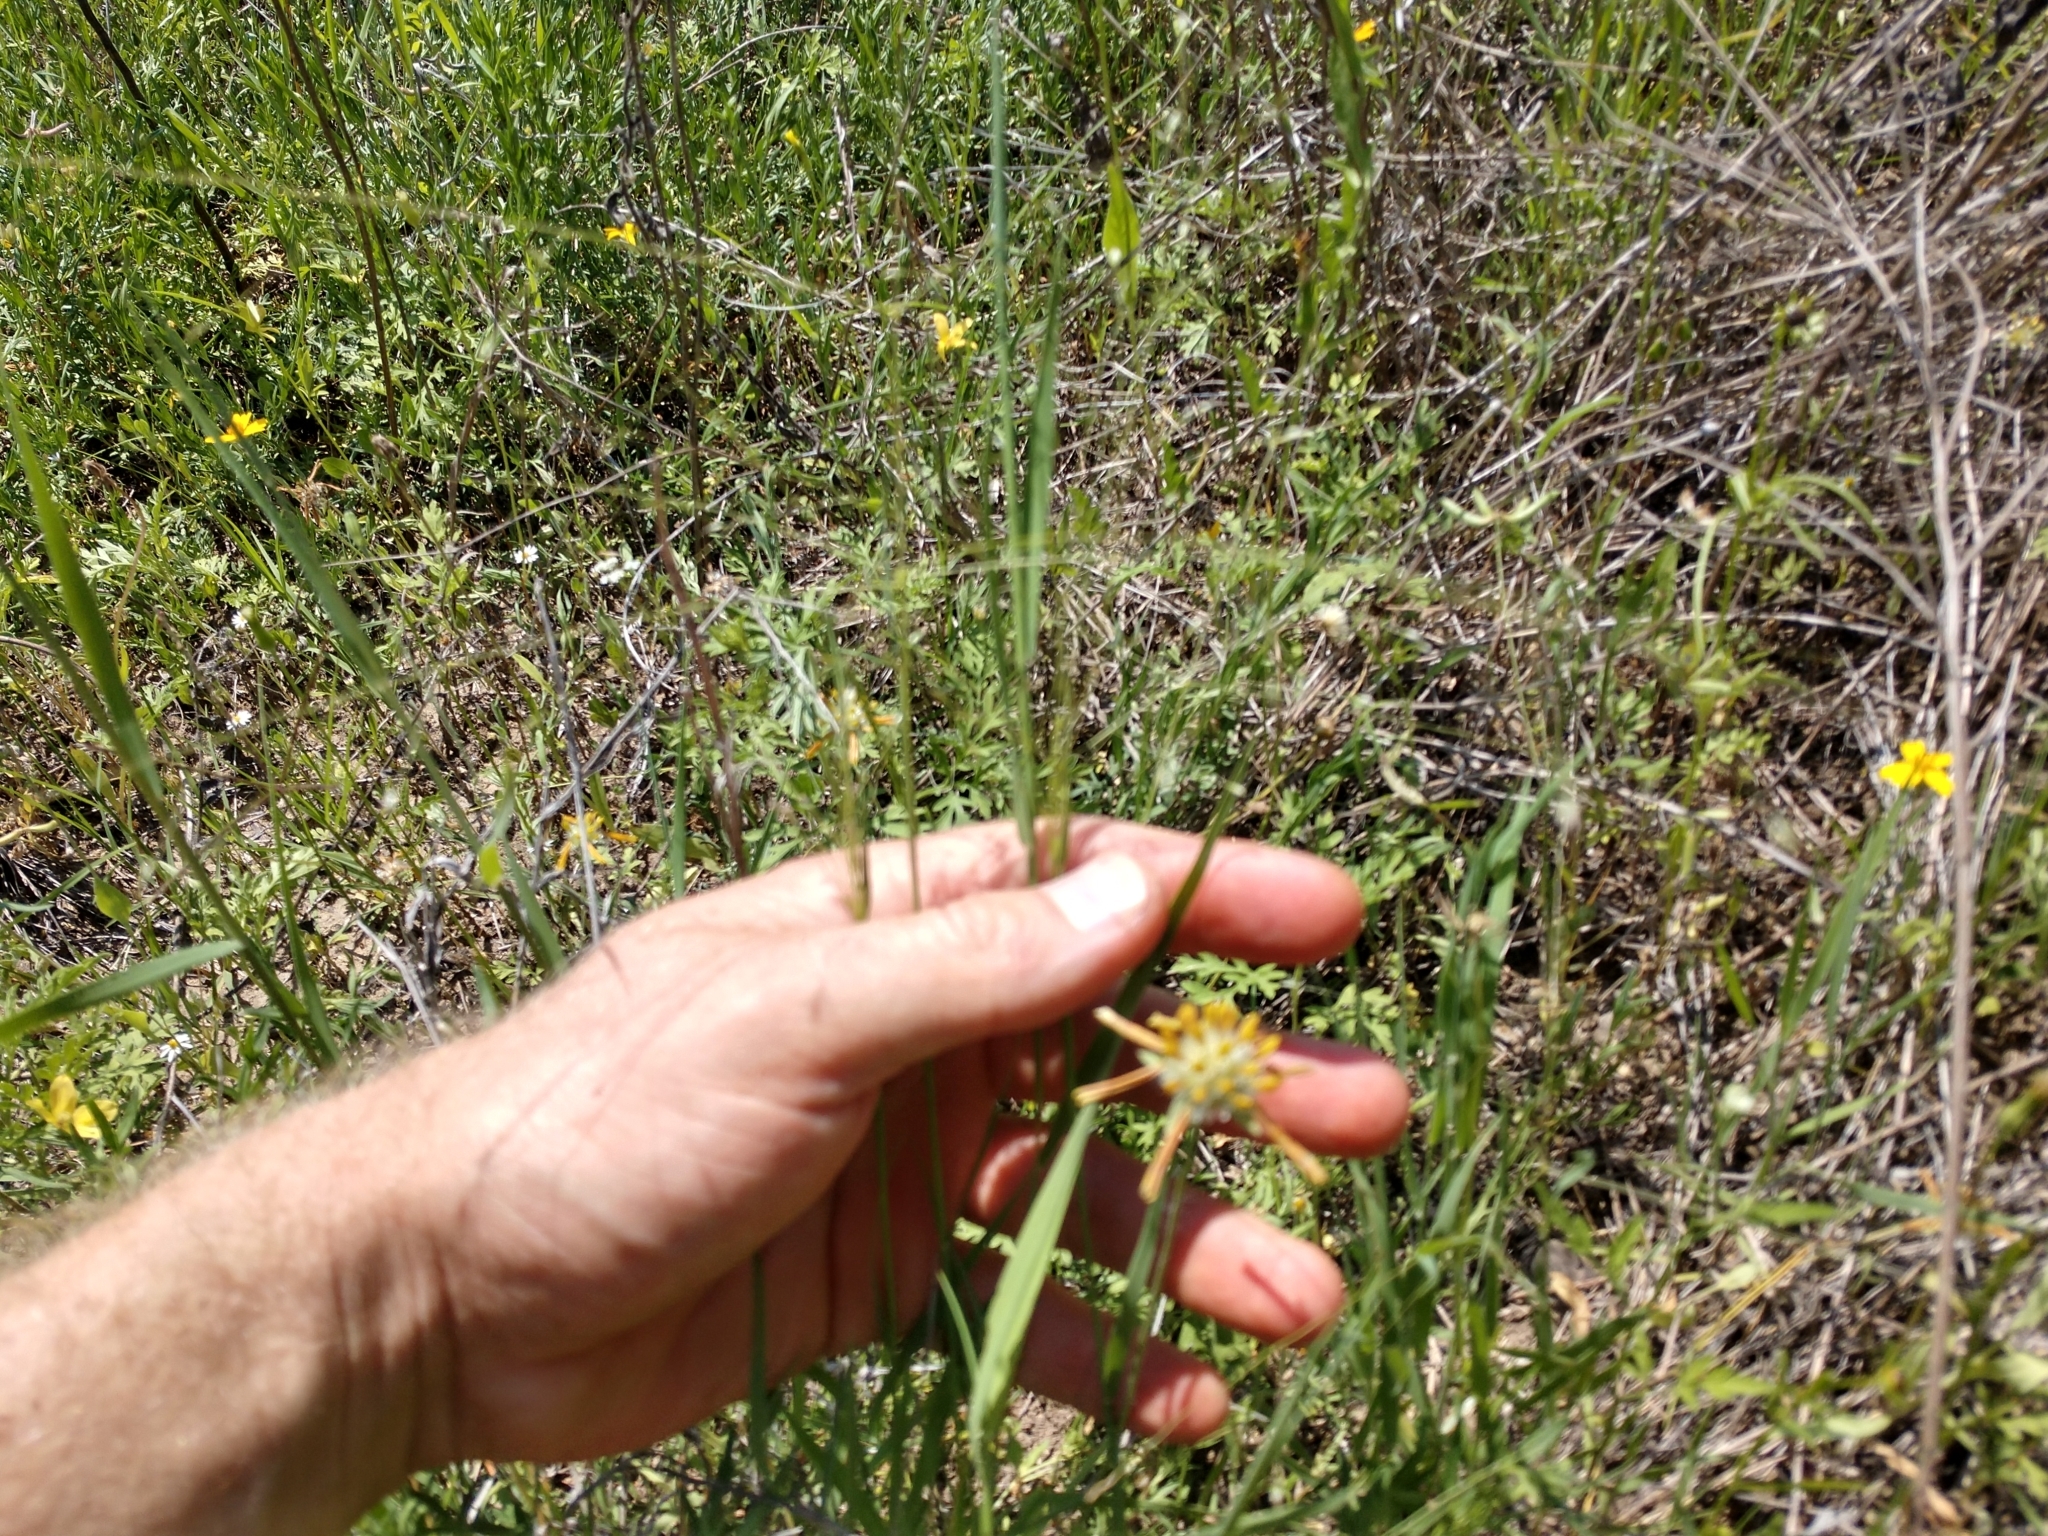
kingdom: Plantae
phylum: Tracheophyta
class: Liliopsida
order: Poales
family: Poaceae
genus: Digitaria
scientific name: Digitaria cognata
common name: Fall witchgrass
